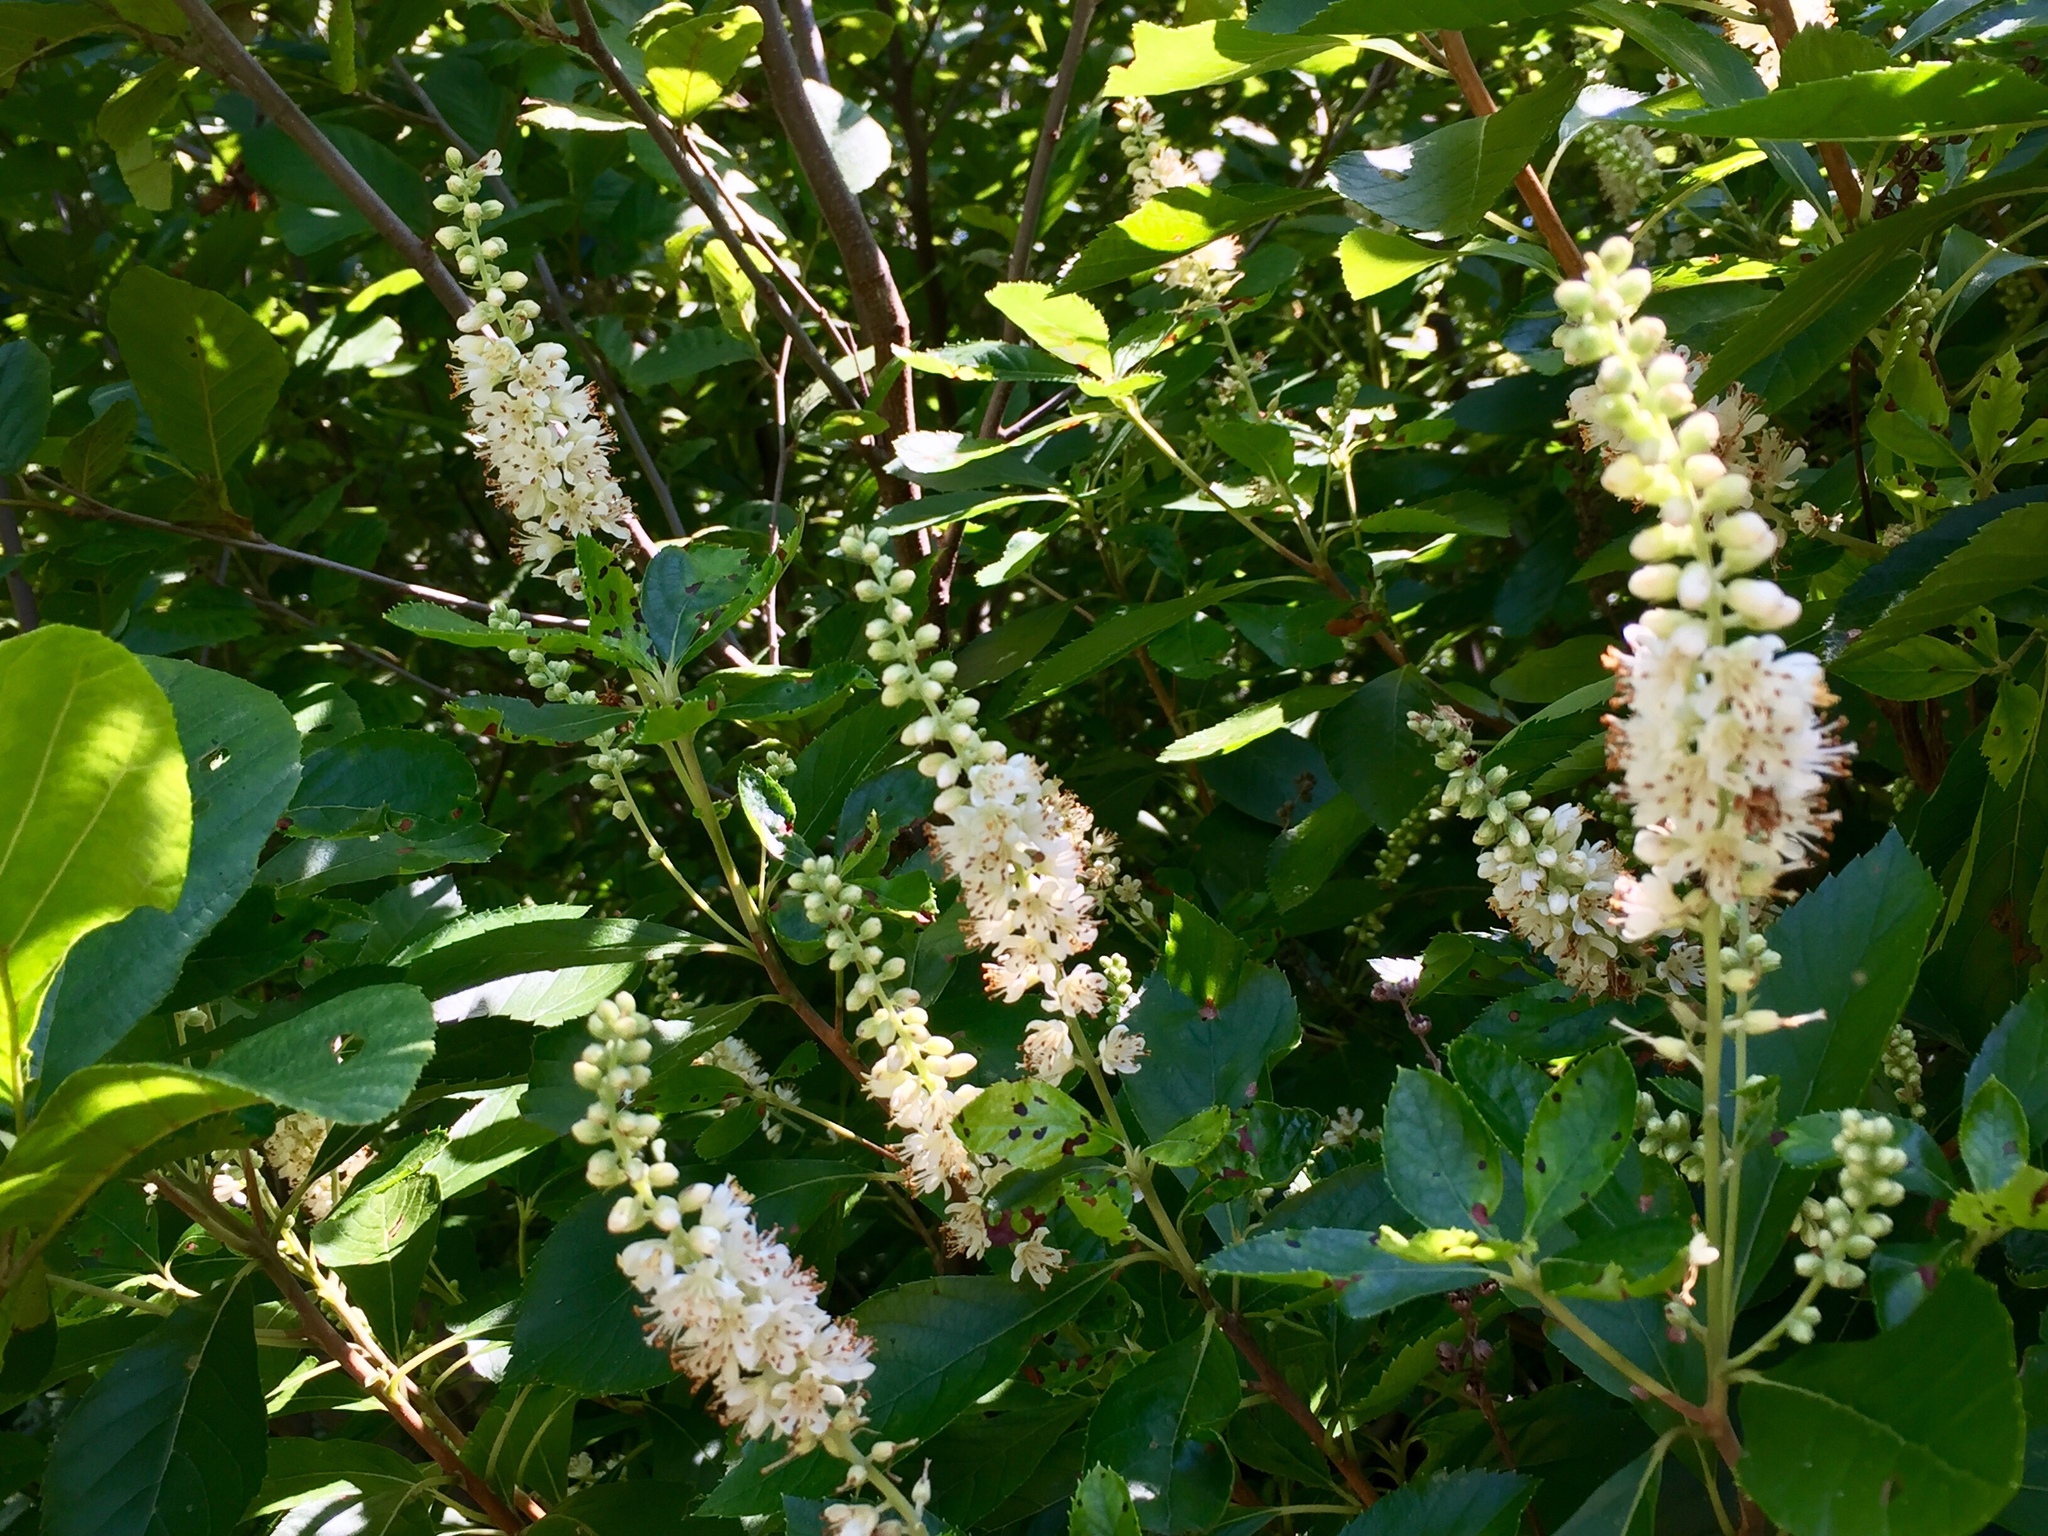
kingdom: Plantae
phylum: Tracheophyta
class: Magnoliopsida
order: Ericales
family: Clethraceae
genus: Clethra
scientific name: Clethra alnifolia
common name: Sweet pepperbush
